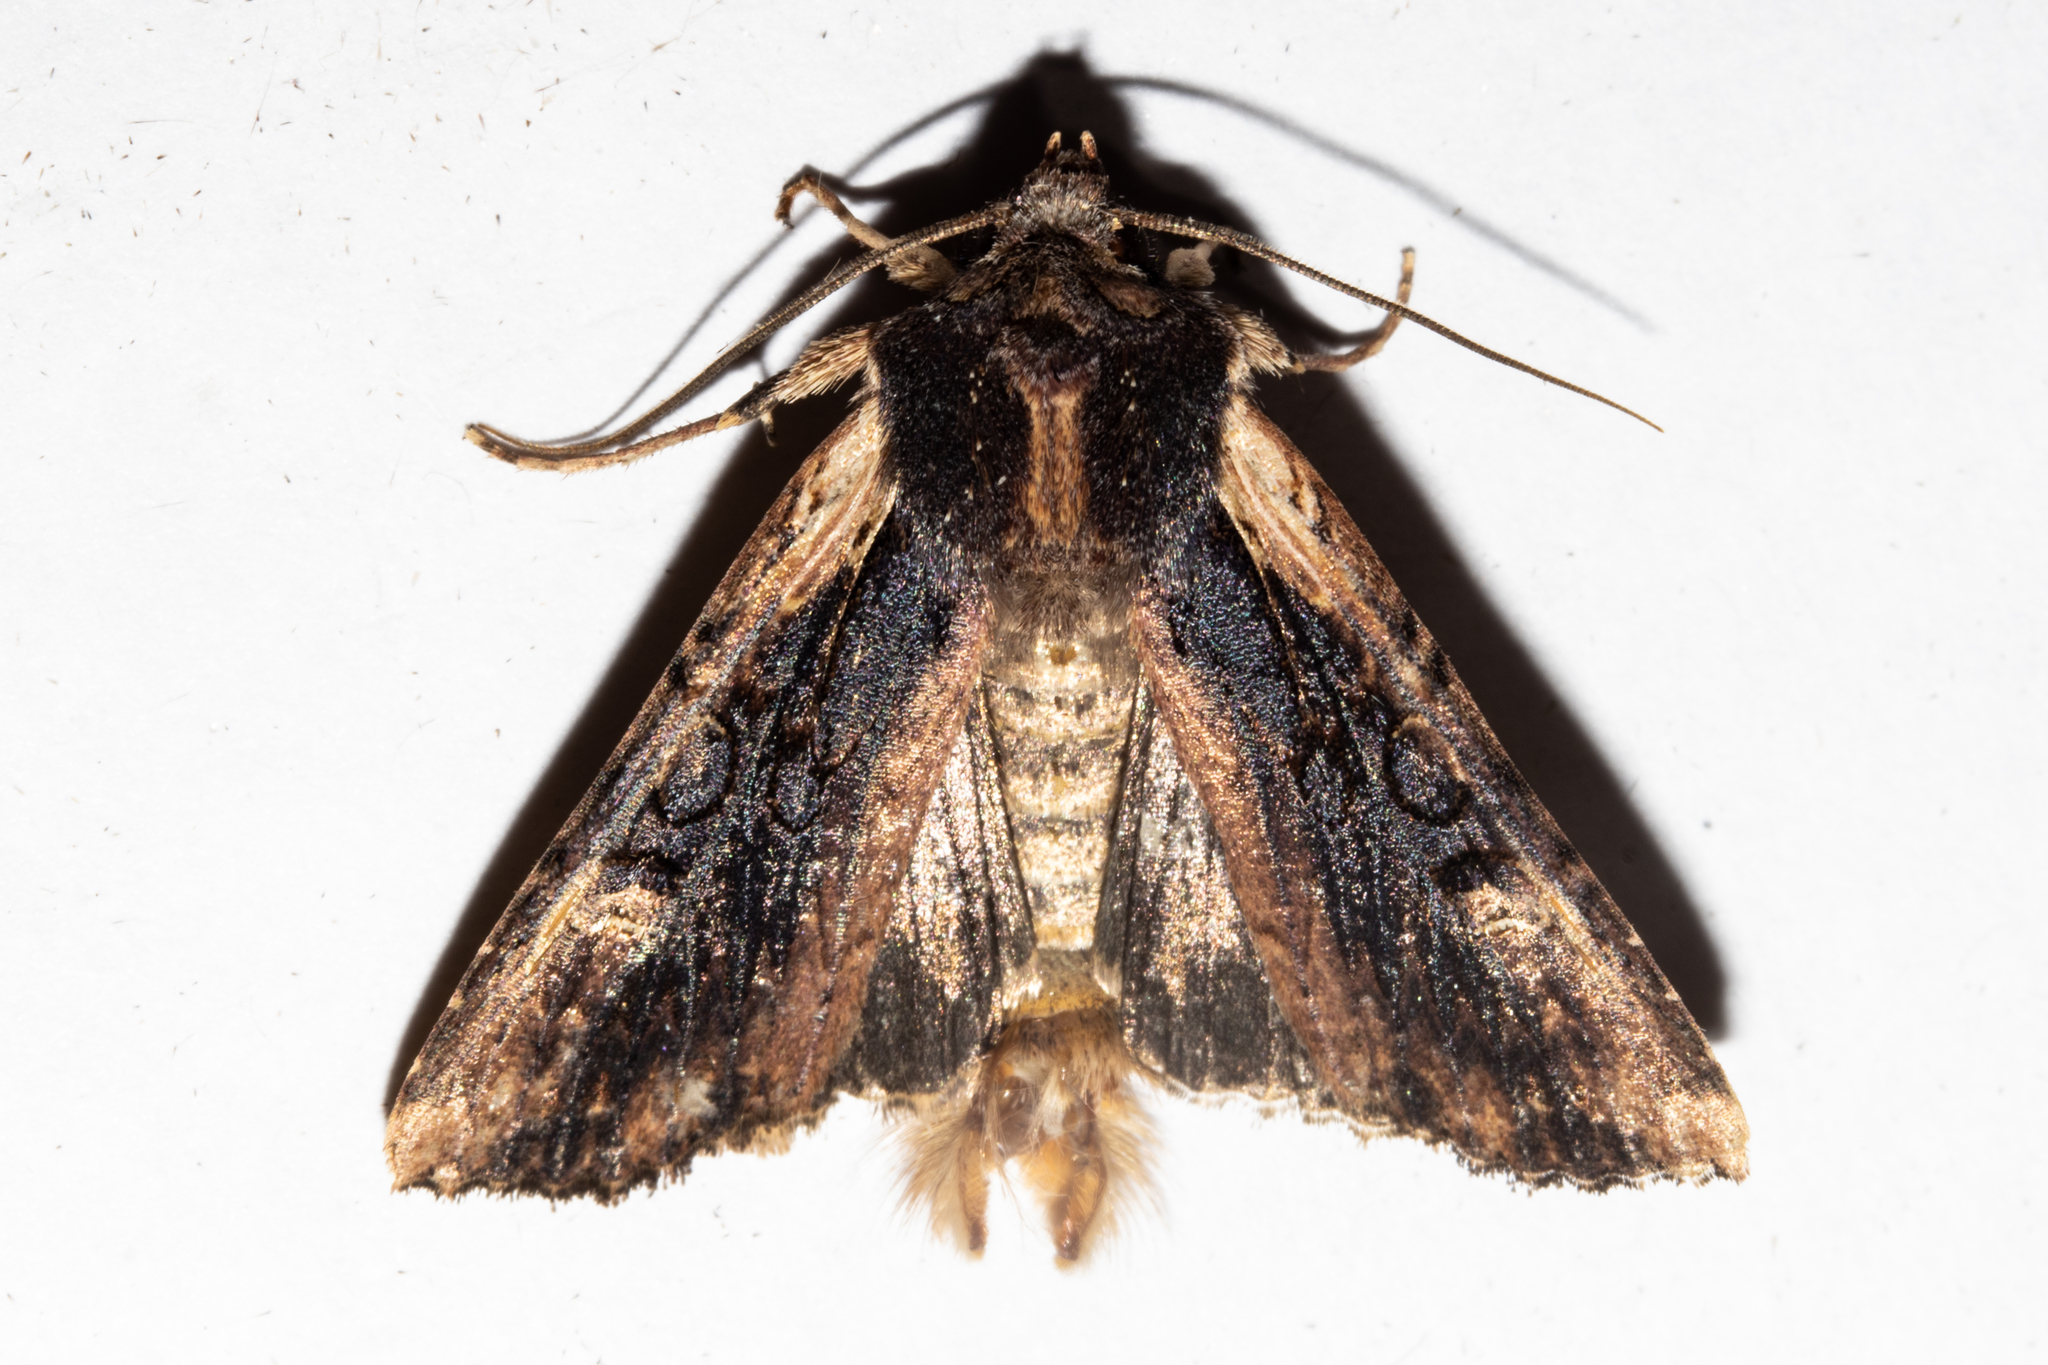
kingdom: Animalia
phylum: Arthropoda
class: Insecta
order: Lepidoptera
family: Noctuidae
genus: Ichneutica
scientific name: Ichneutica omoplaca
